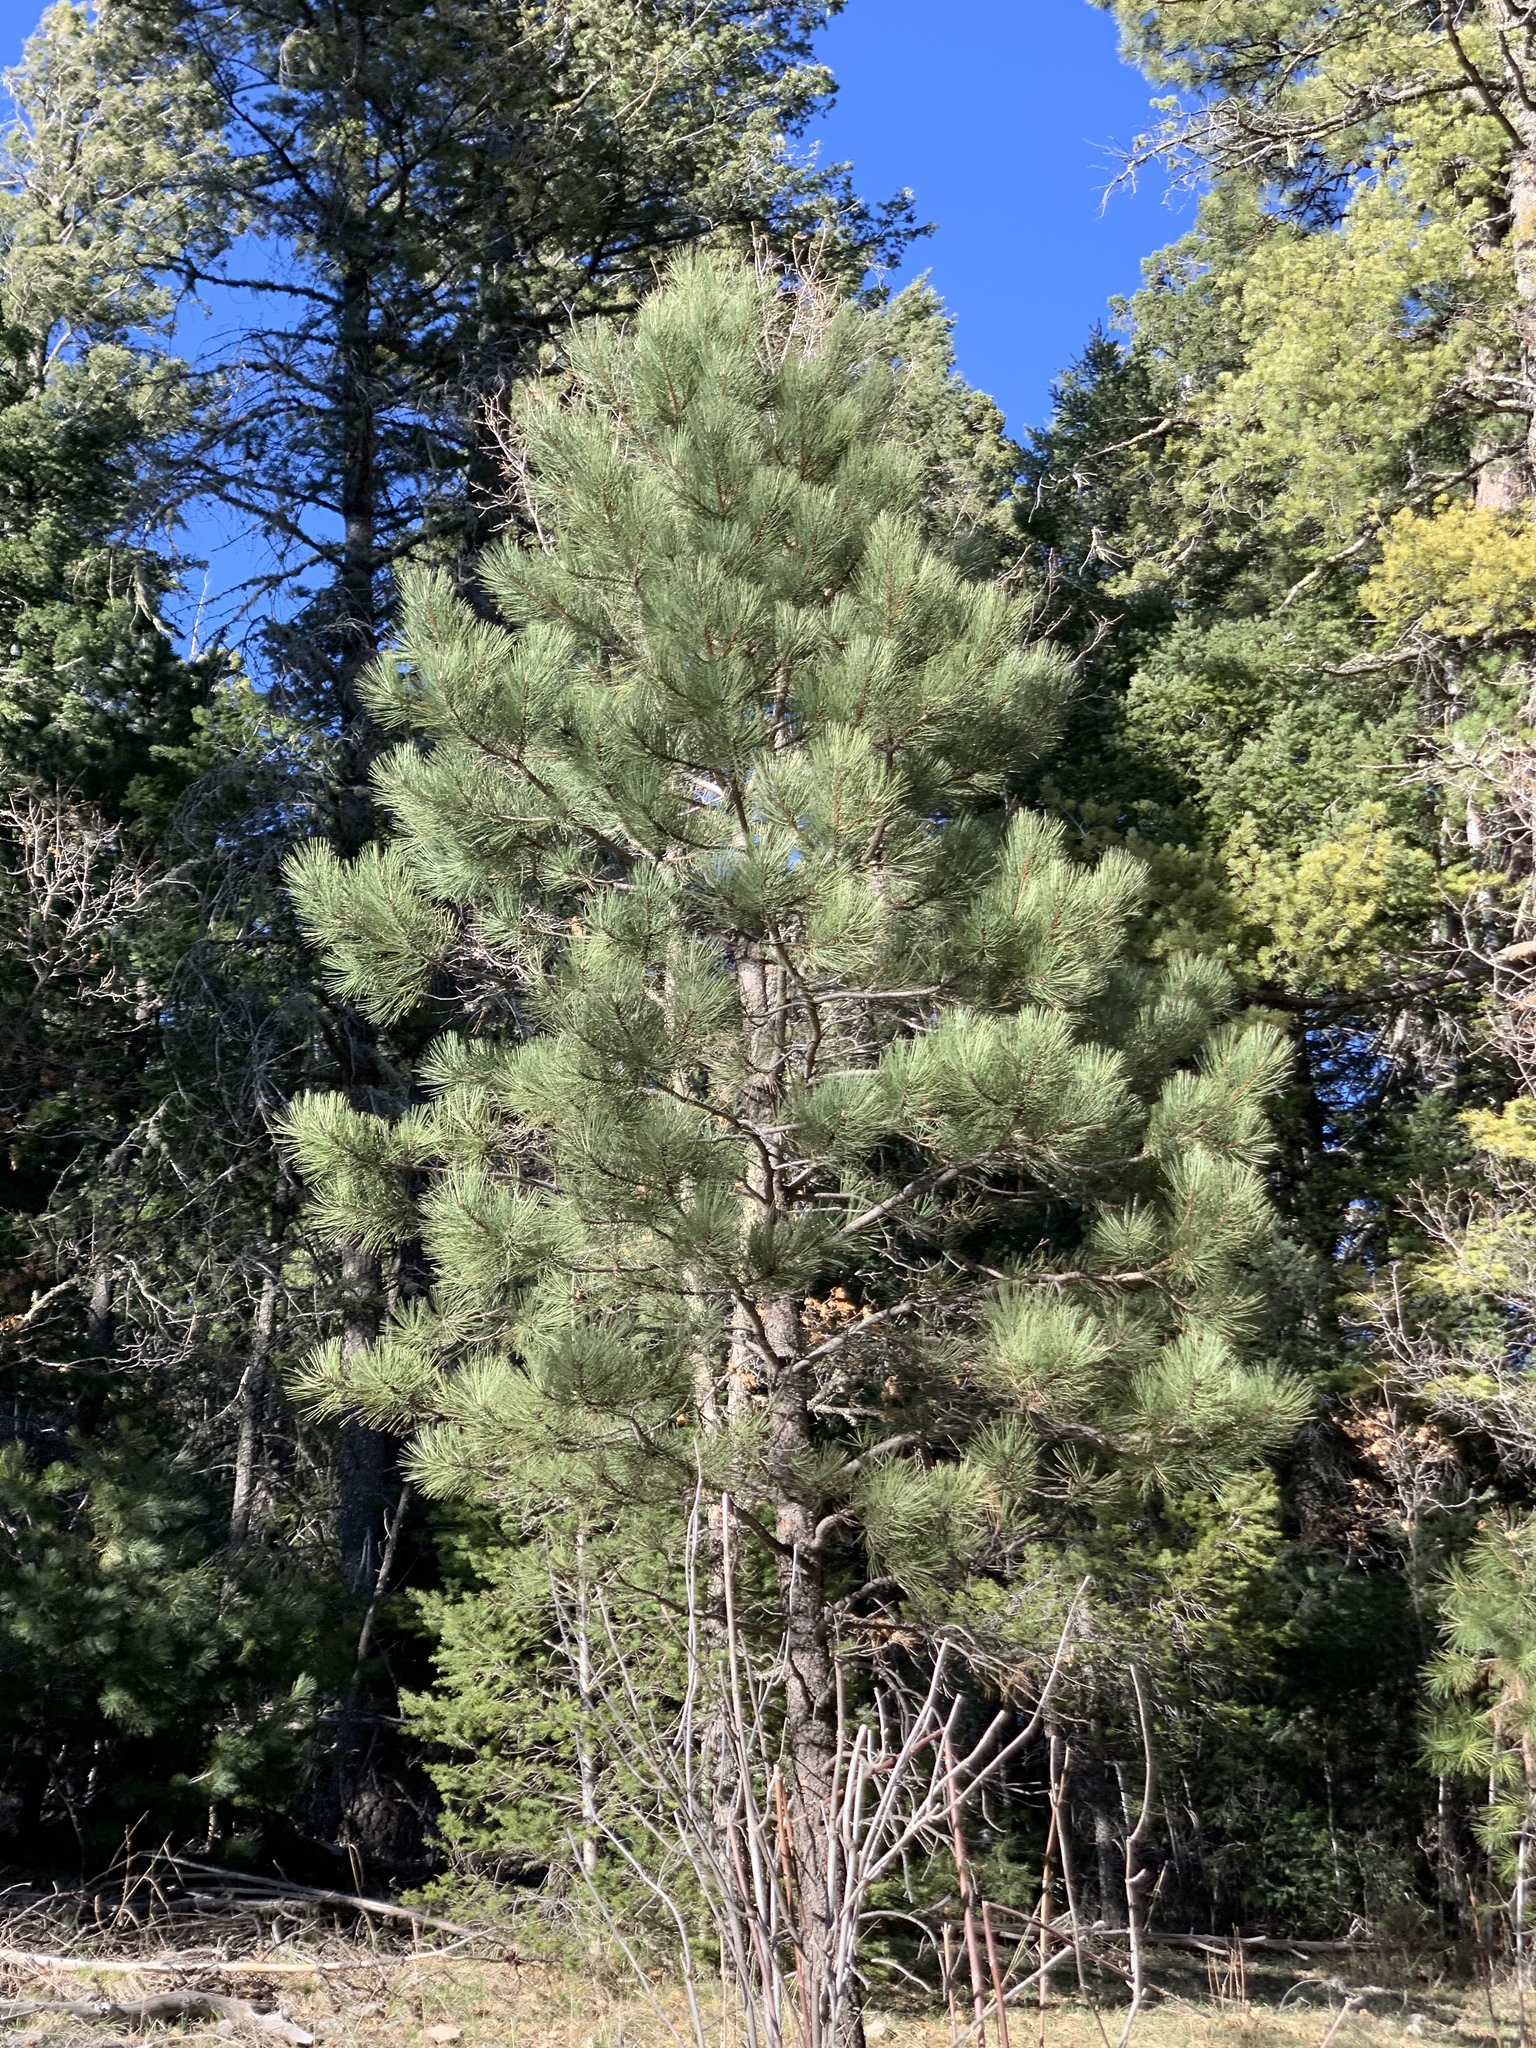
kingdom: Plantae
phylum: Tracheophyta
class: Pinopsida
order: Pinales
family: Pinaceae
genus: Pinus
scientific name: Pinus ponderosa
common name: Western yellow-pine
